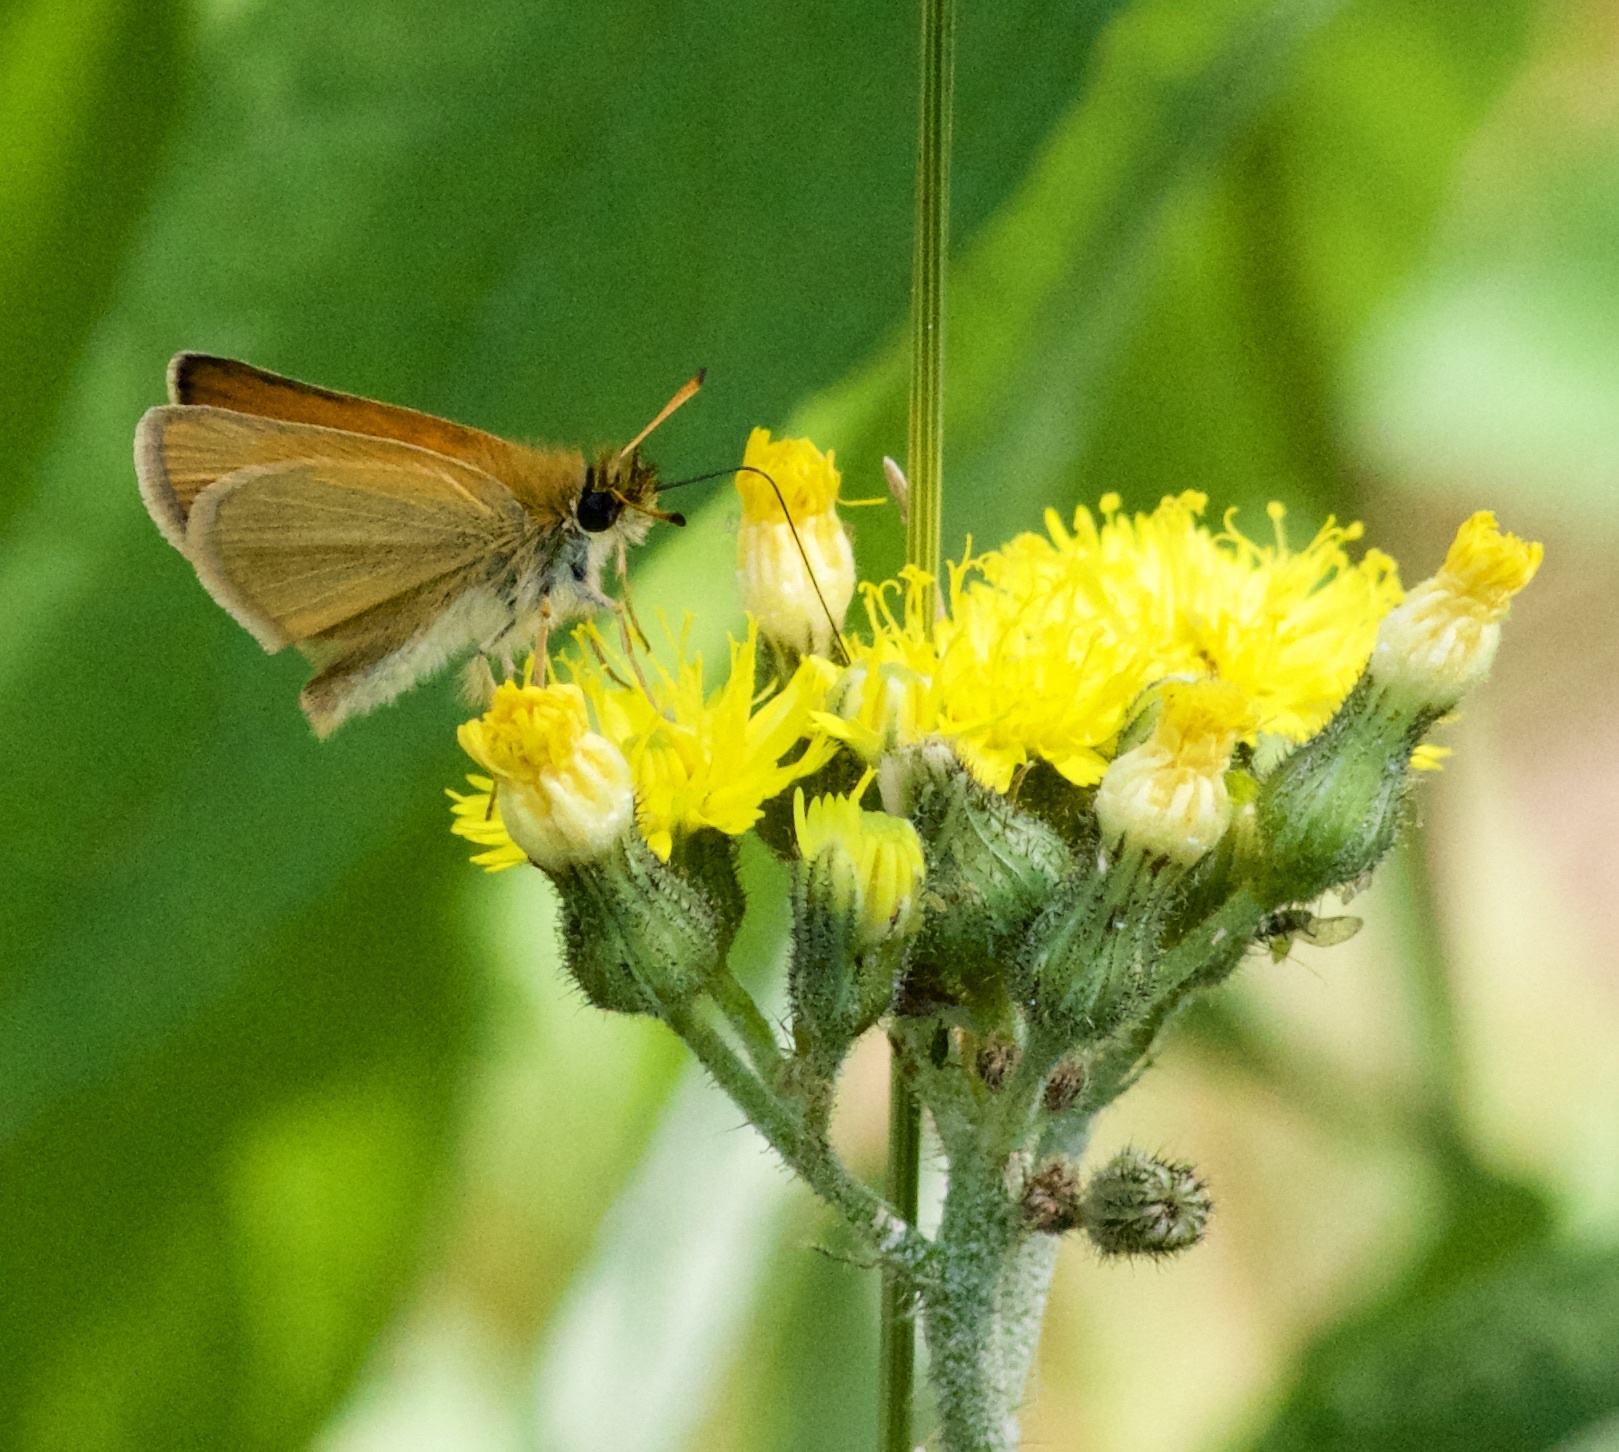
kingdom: Animalia
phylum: Arthropoda
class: Insecta
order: Lepidoptera
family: Hesperiidae
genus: Thymelicus
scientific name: Thymelicus lineola
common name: Essex skipper
